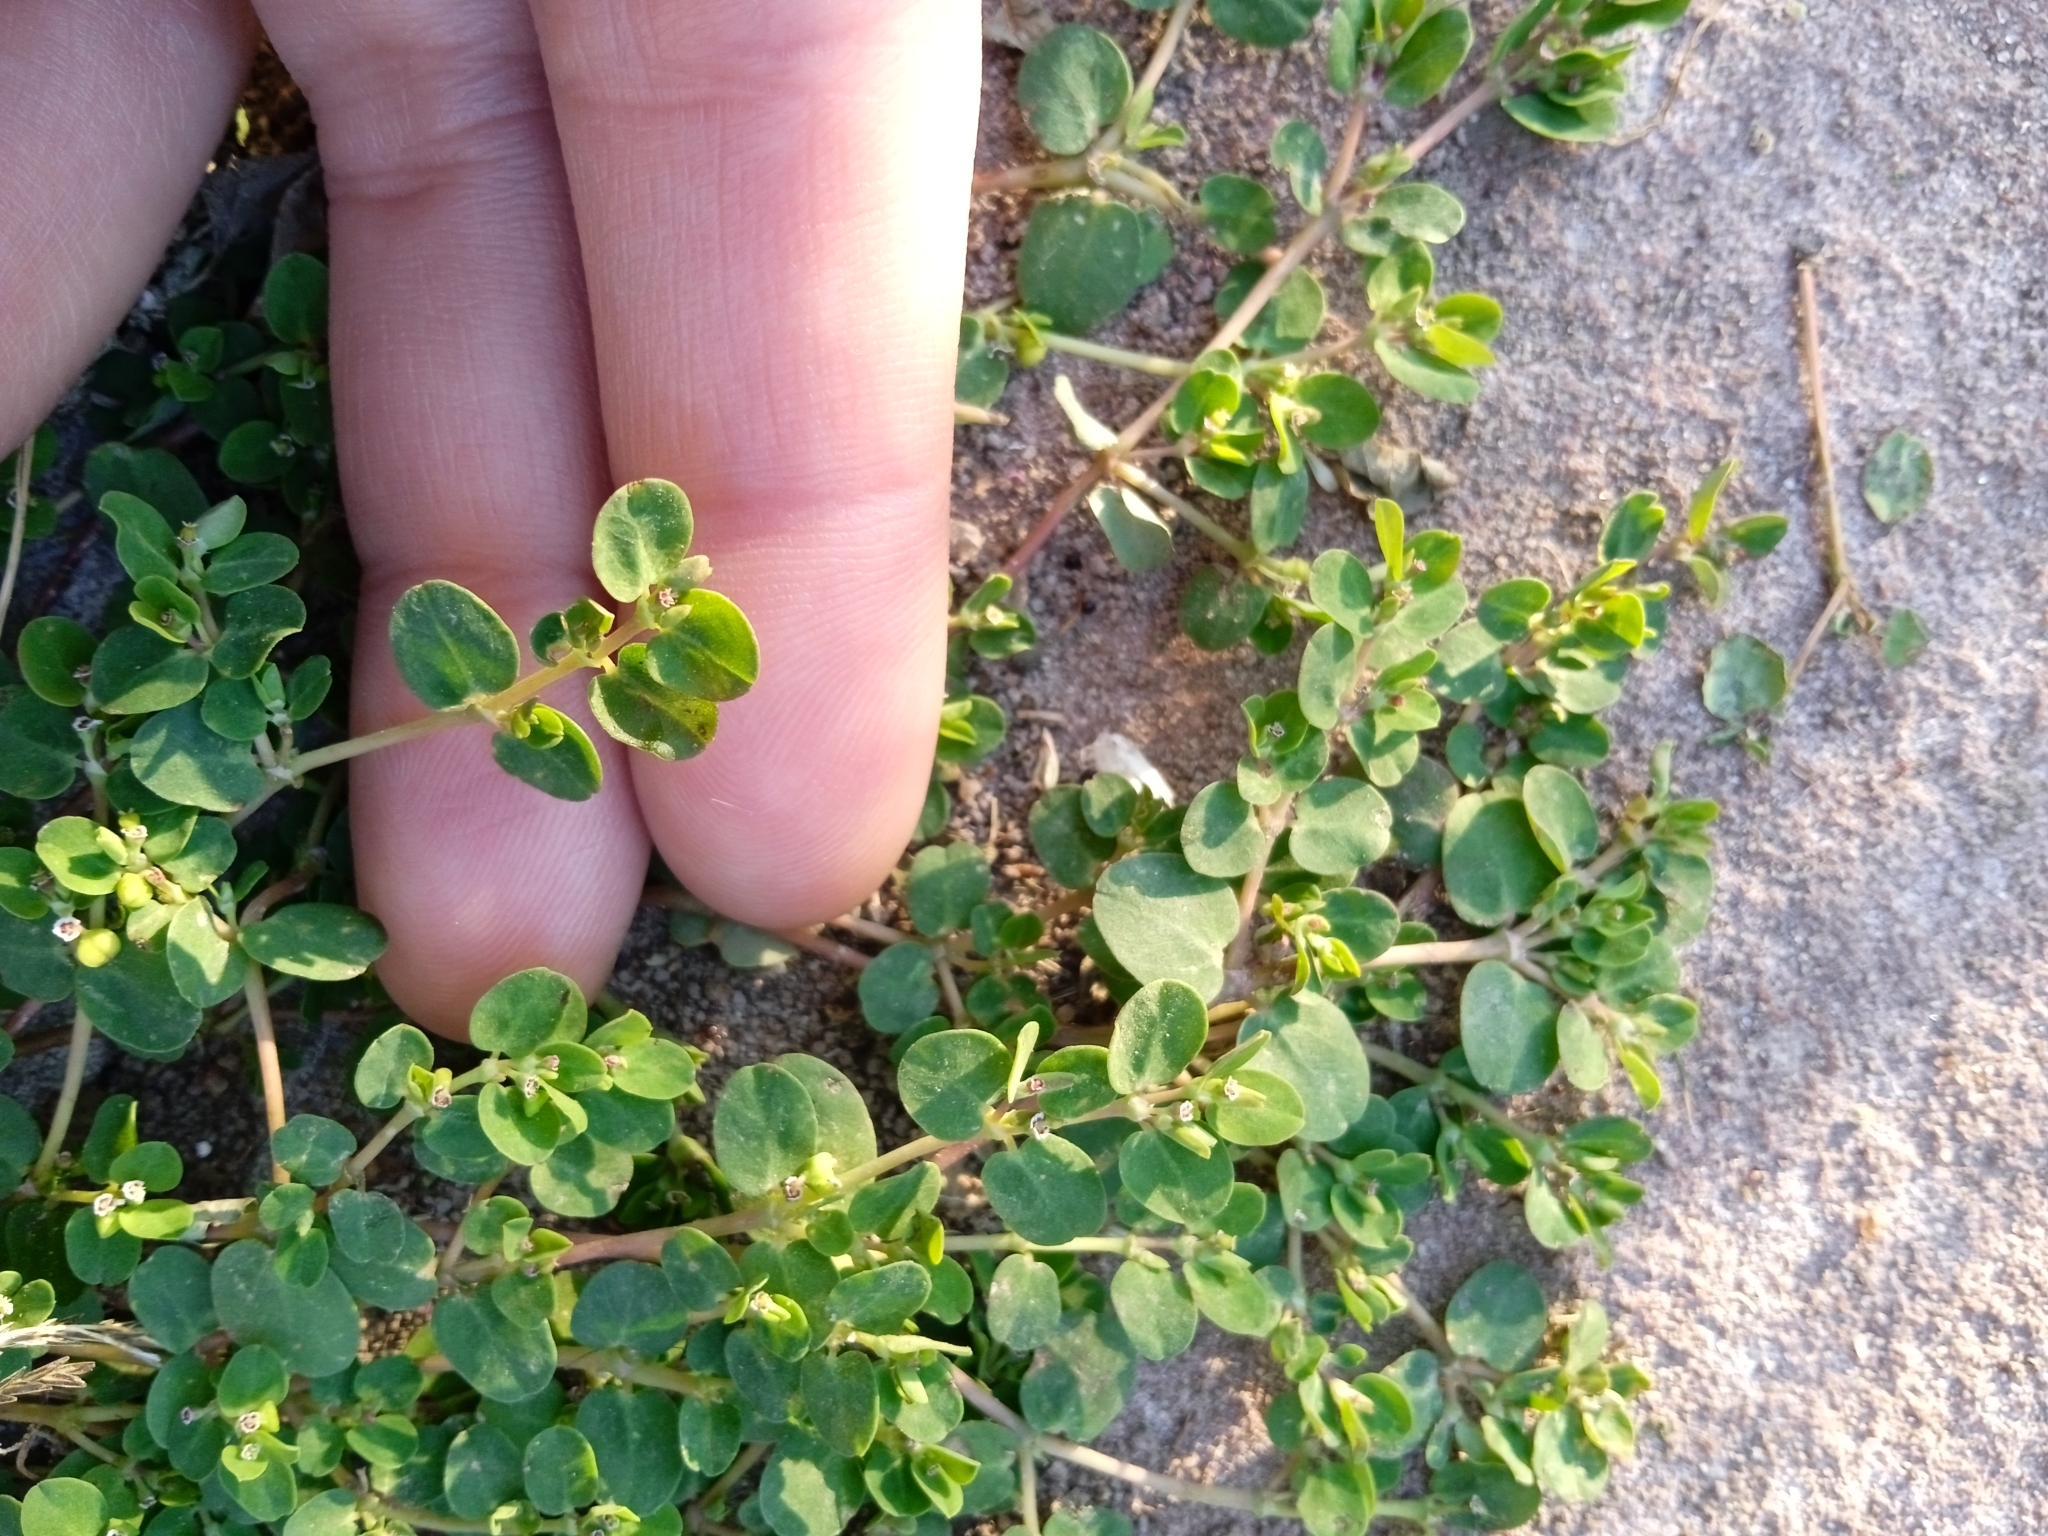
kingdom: Plantae
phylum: Tracheophyta
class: Magnoliopsida
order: Malpighiales
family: Euphorbiaceae
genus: Euphorbia
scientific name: Euphorbia serpens
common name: Matted sandmat
